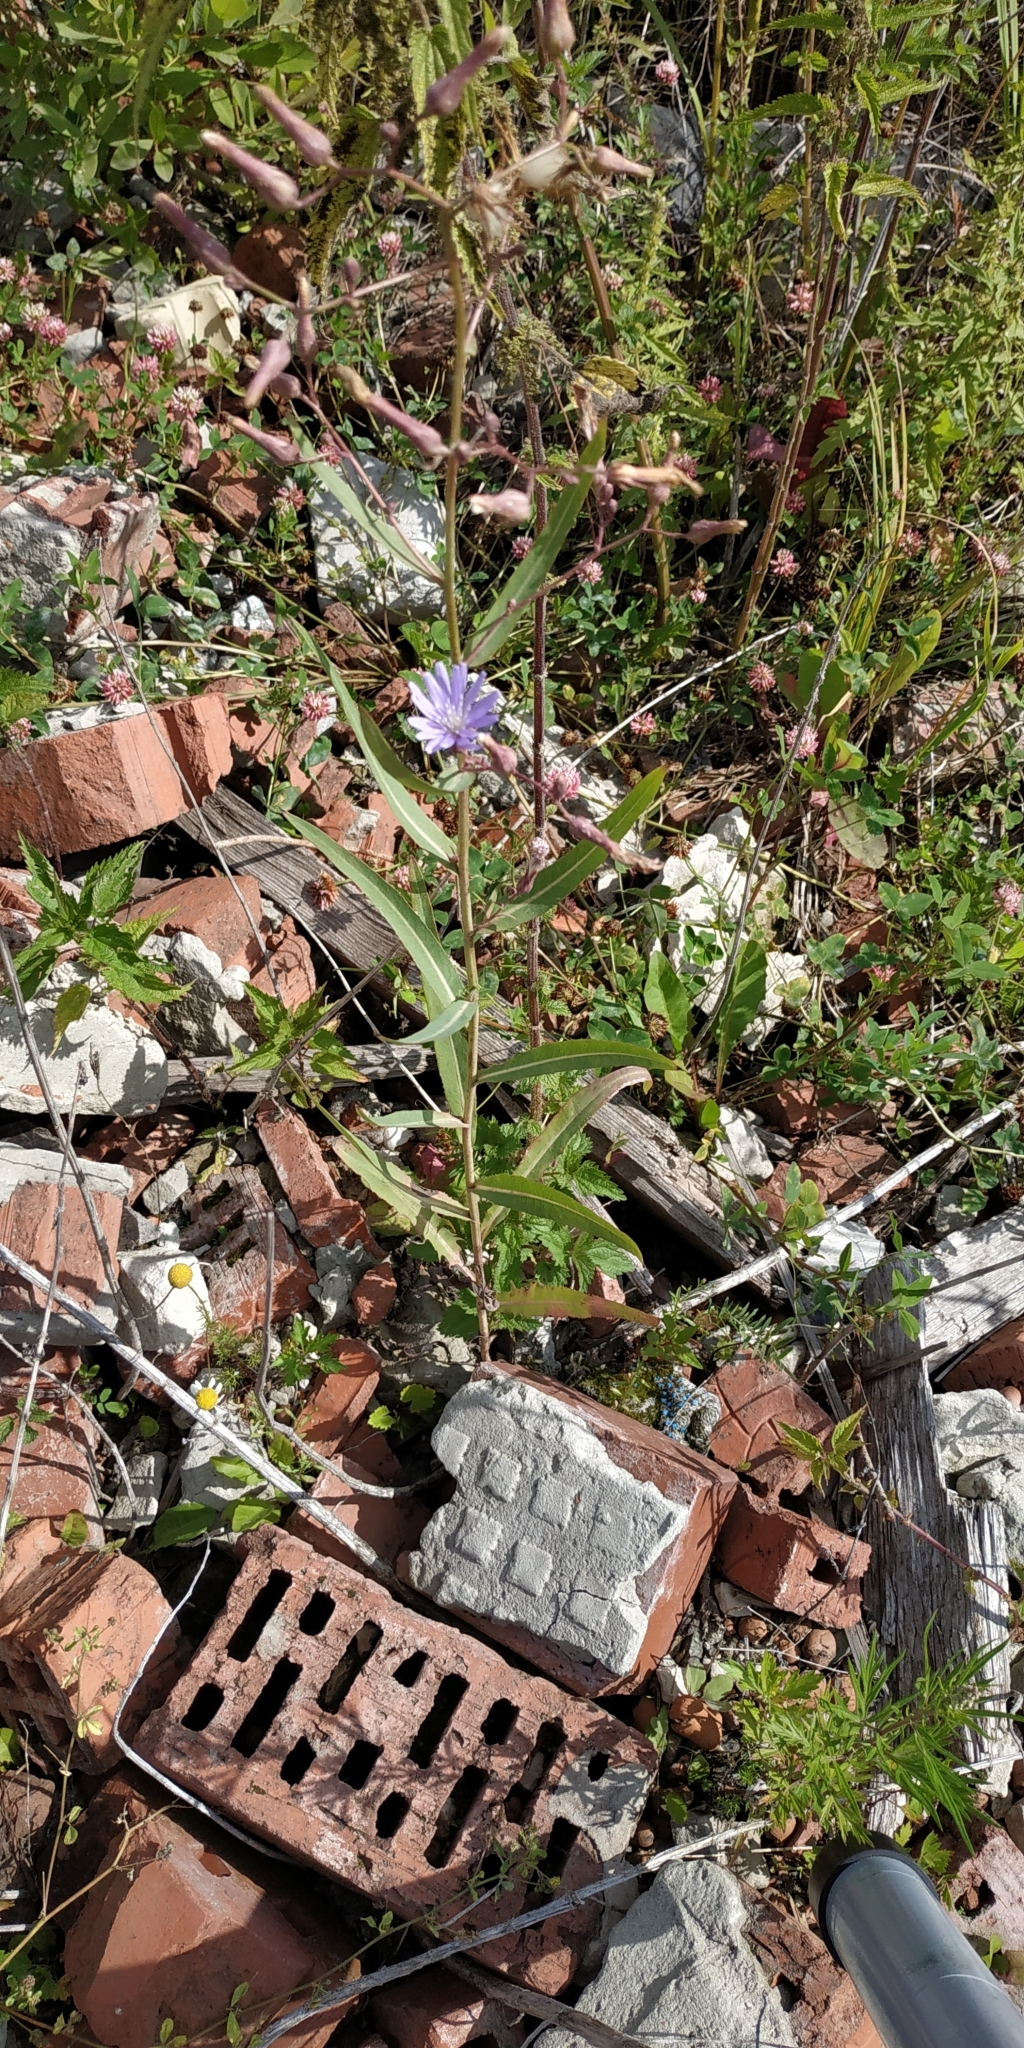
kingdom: Plantae
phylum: Tracheophyta
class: Magnoliopsida
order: Asterales
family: Asteraceae
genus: Lactuca
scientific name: Lactuca sibirica
